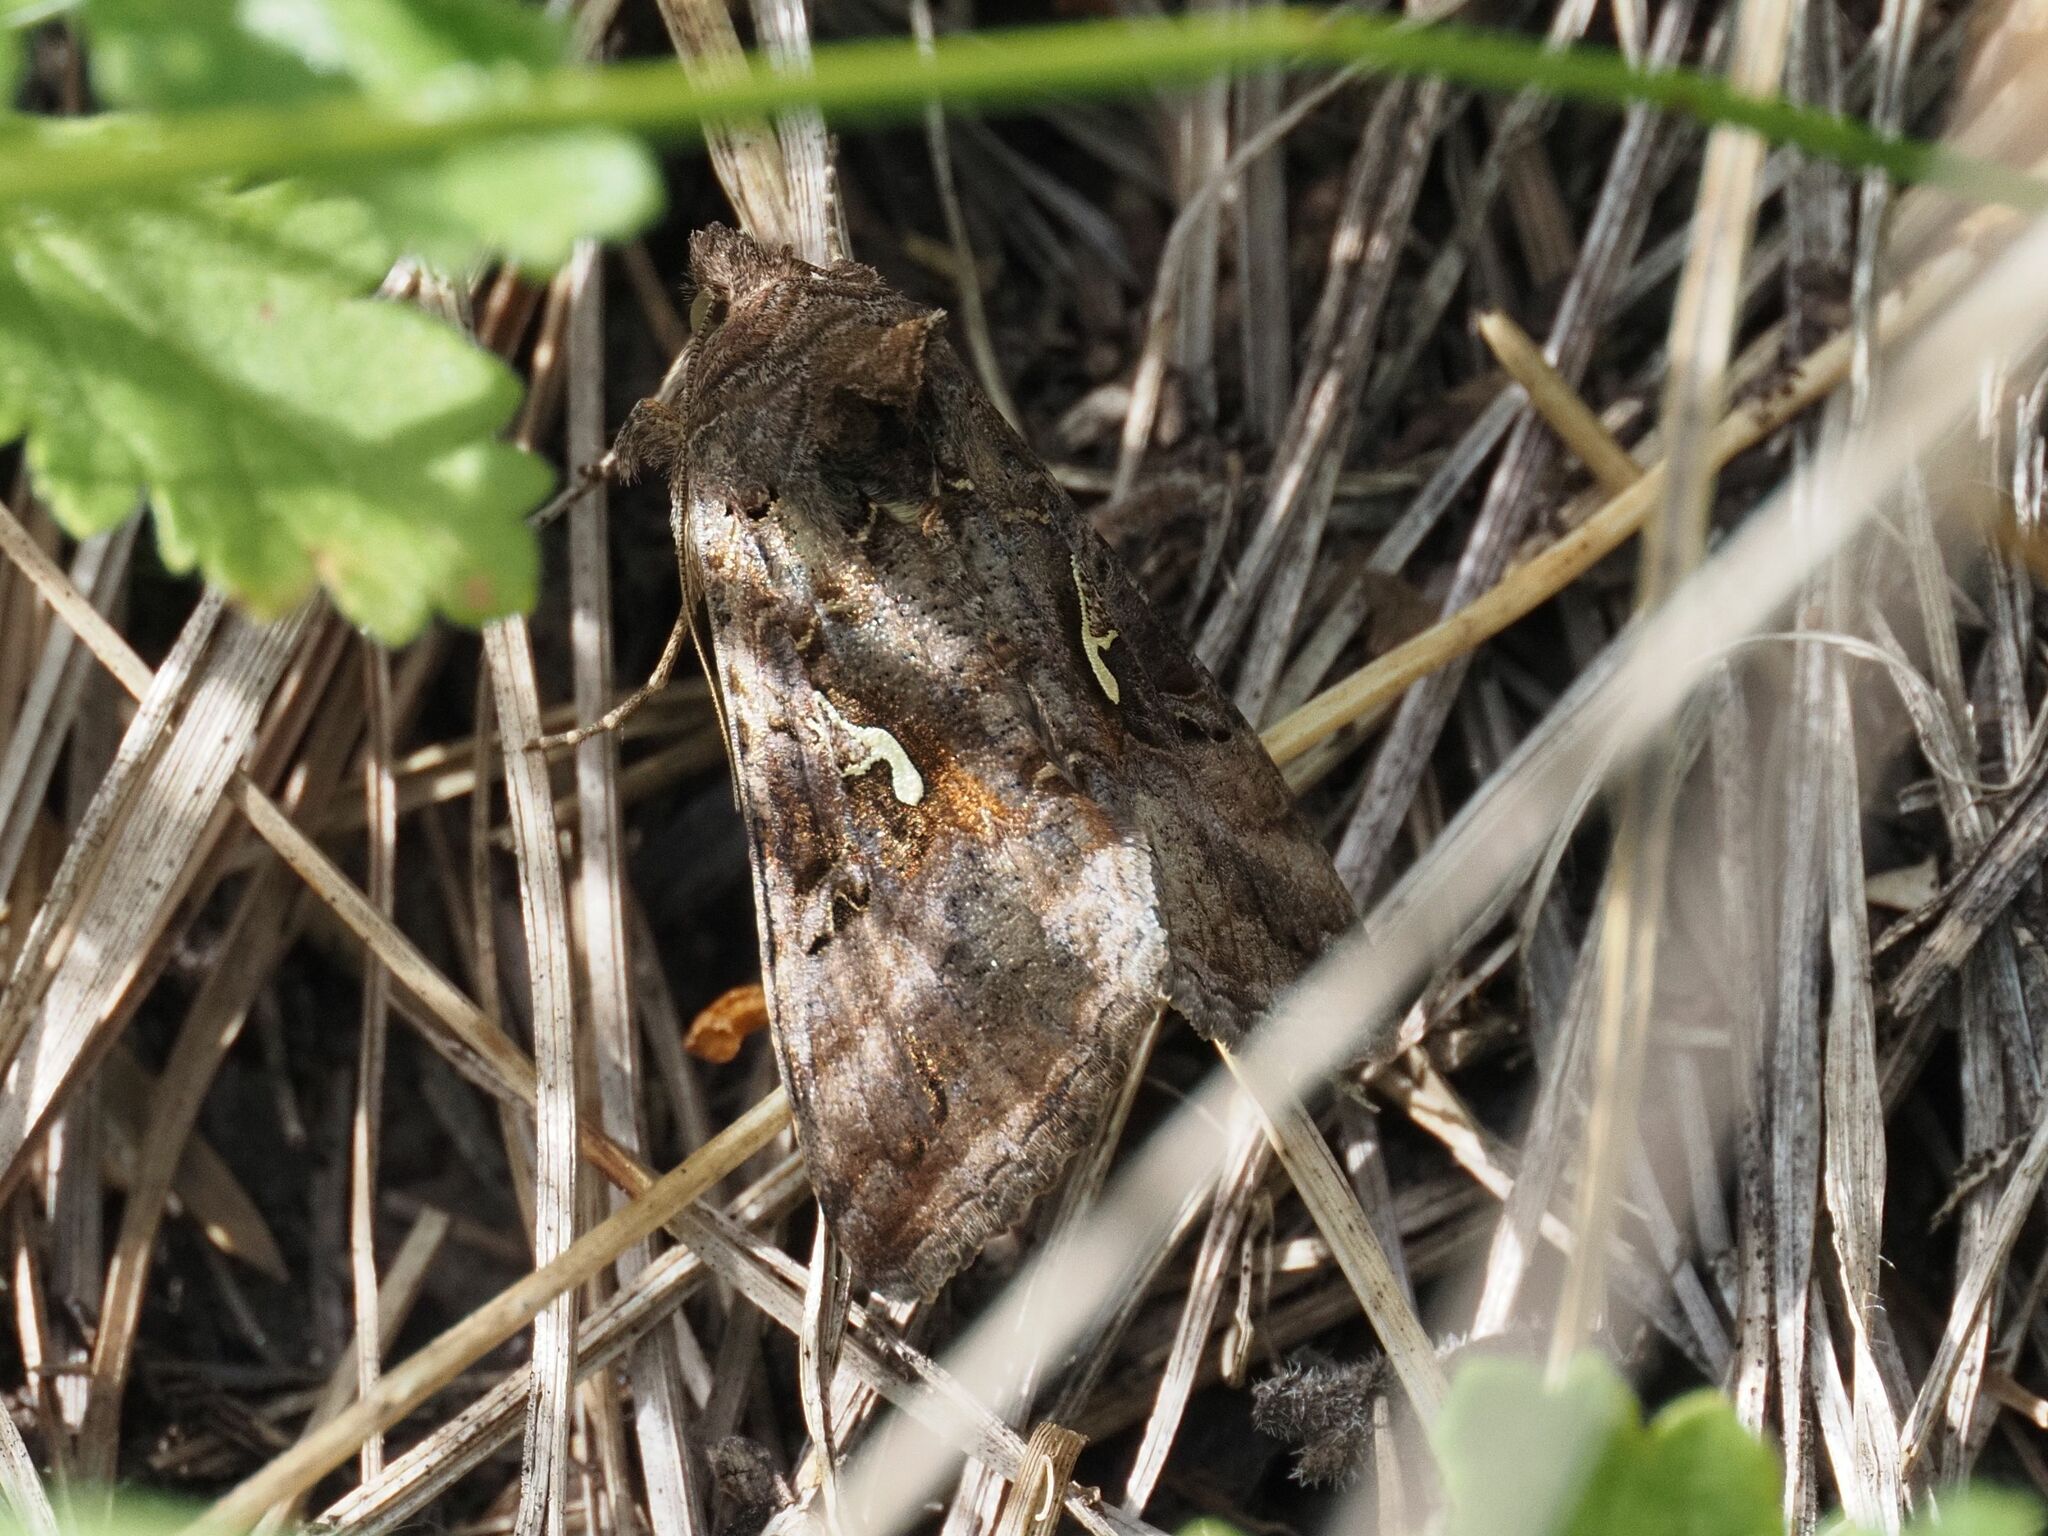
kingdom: Animalia
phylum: Arthropoda
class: Insecta
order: Lepidoptera
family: Noctuidae
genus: Autographa
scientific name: Autographa gamma
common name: Silver y
